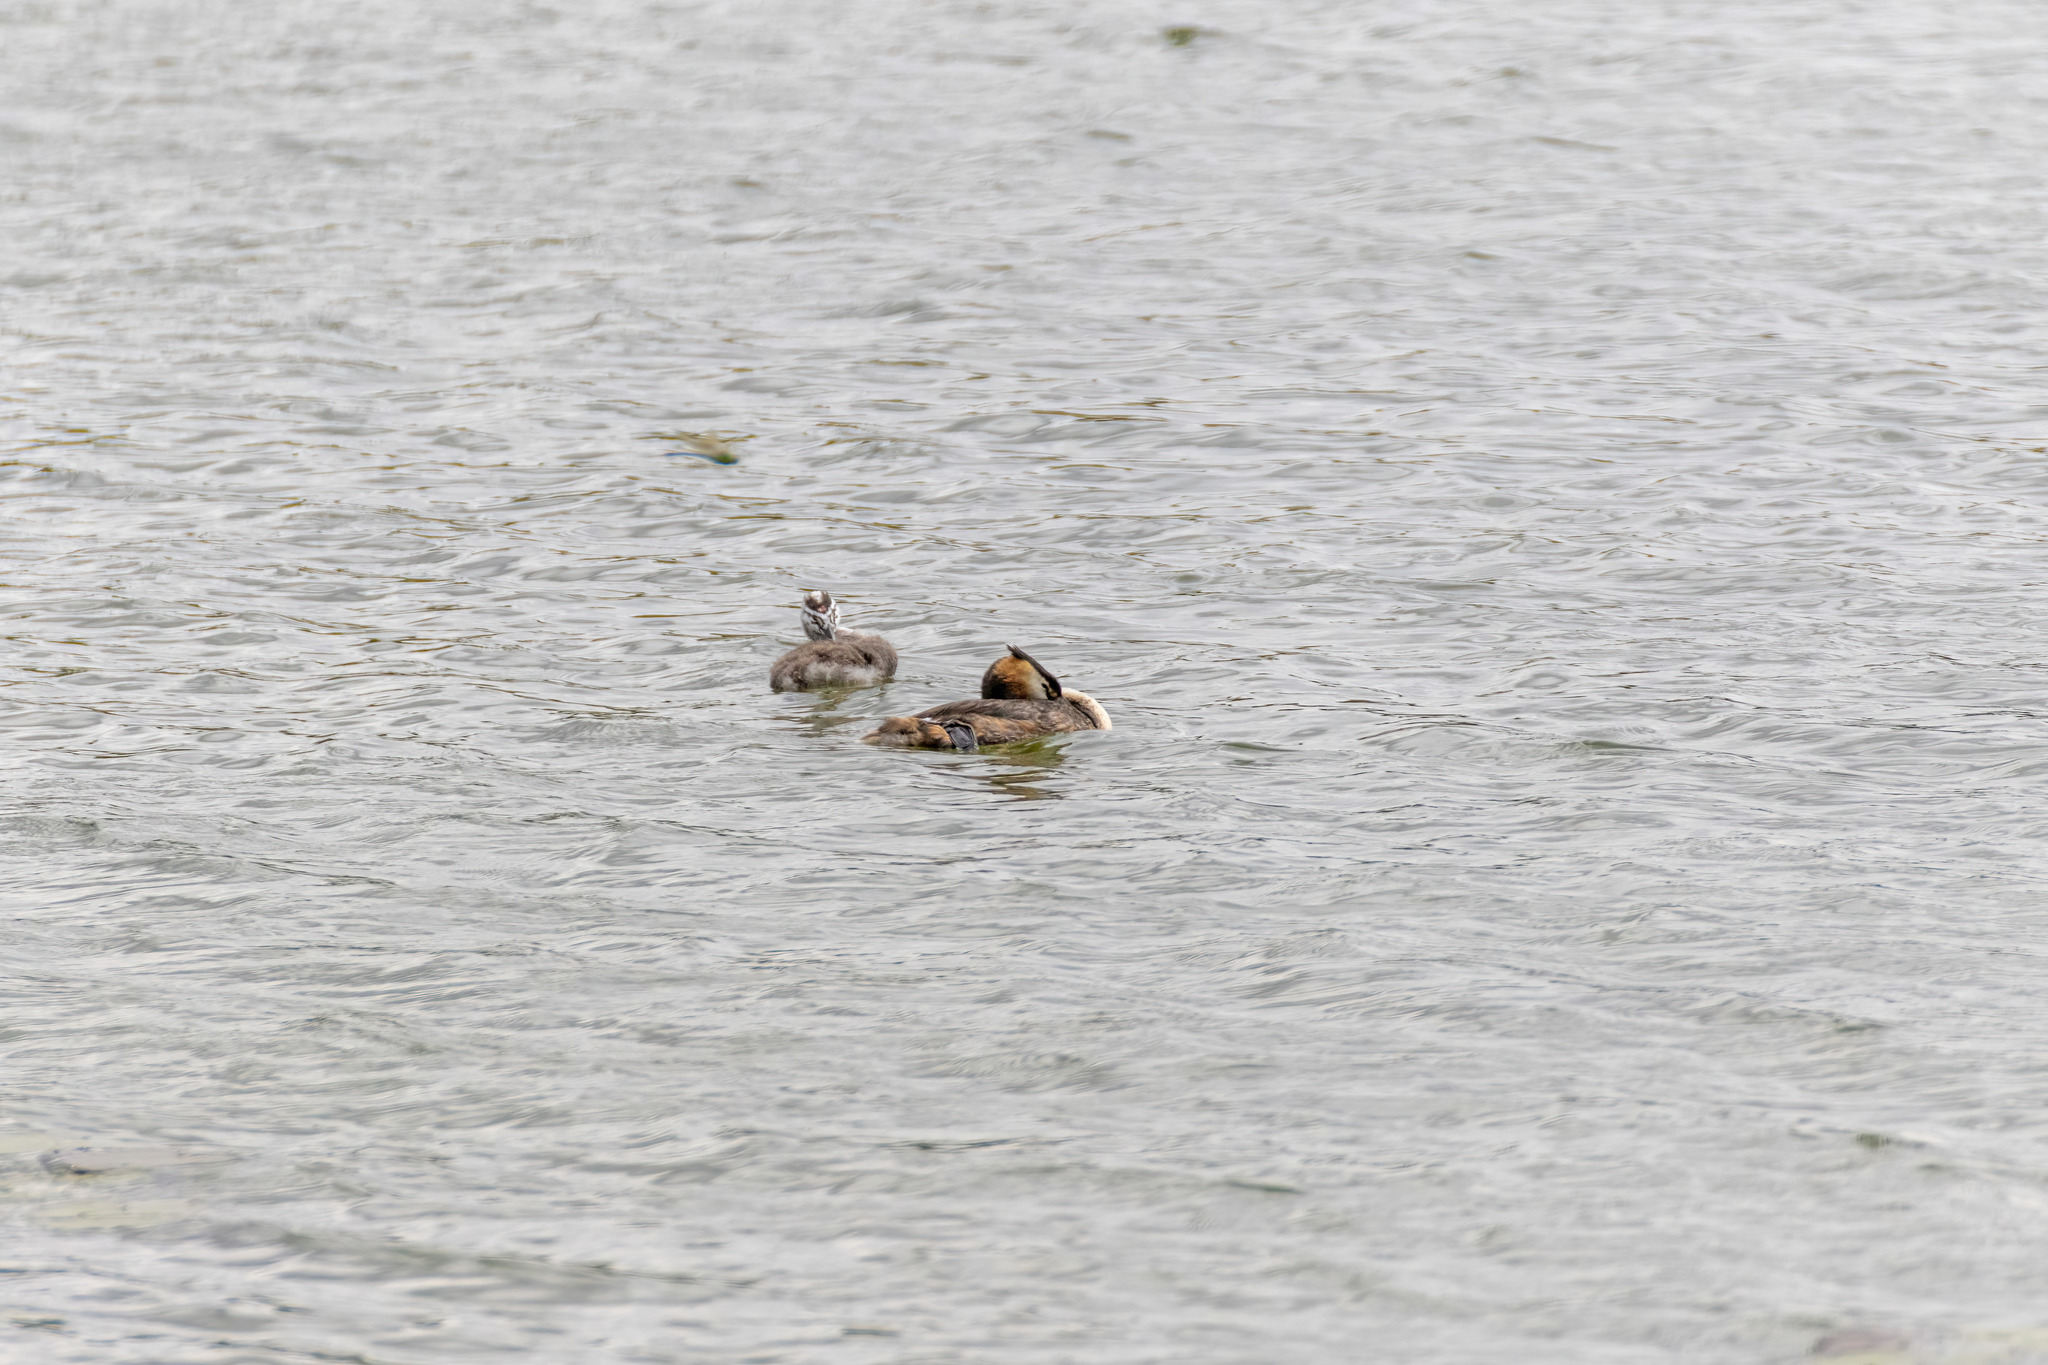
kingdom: Animalia
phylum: Chordata
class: Aves
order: Podicipediformes
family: Podicipedidae
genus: Podiceps
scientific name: Podiceps cristatus
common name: Great crested grebe
